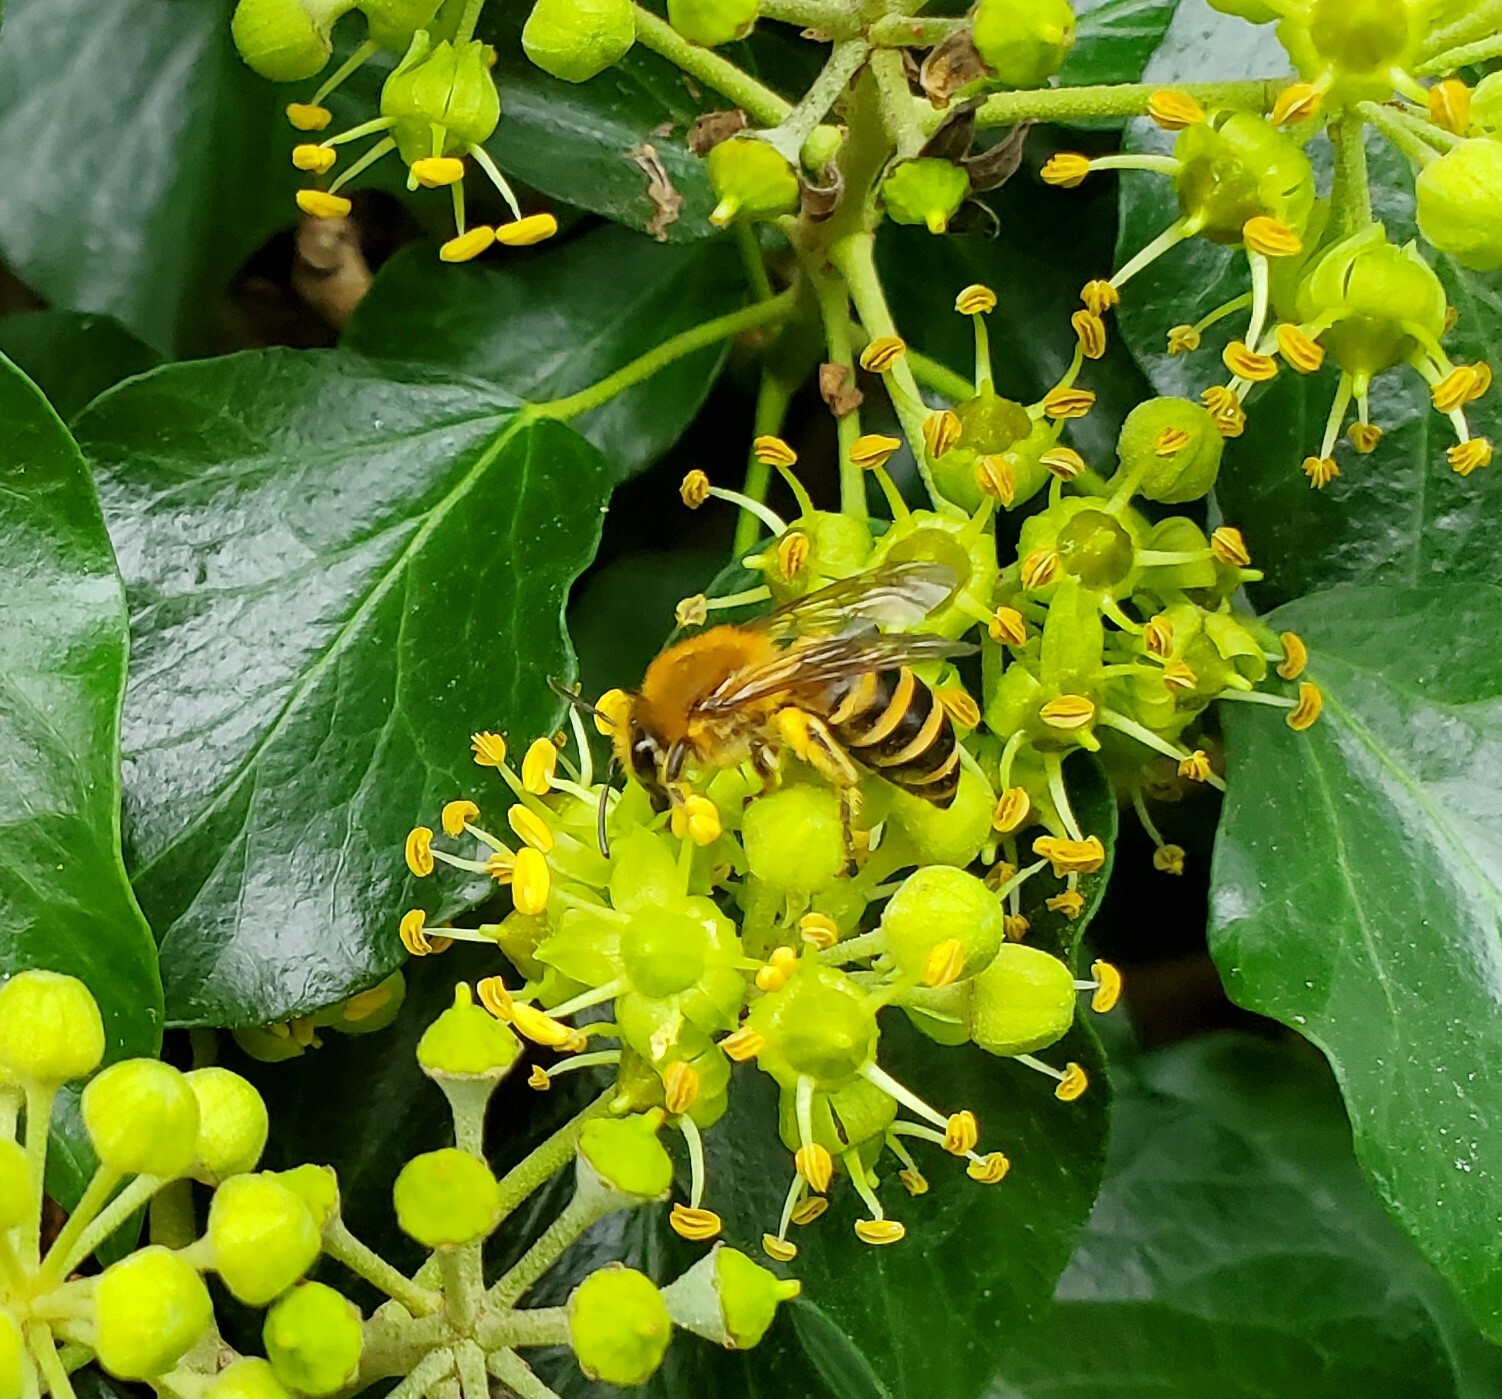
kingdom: Animalia
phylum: Arthropoda
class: Insecta
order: Hymenoptera
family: Colletidae
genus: Colletes
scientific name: Colletes hederae
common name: Ivy bee
